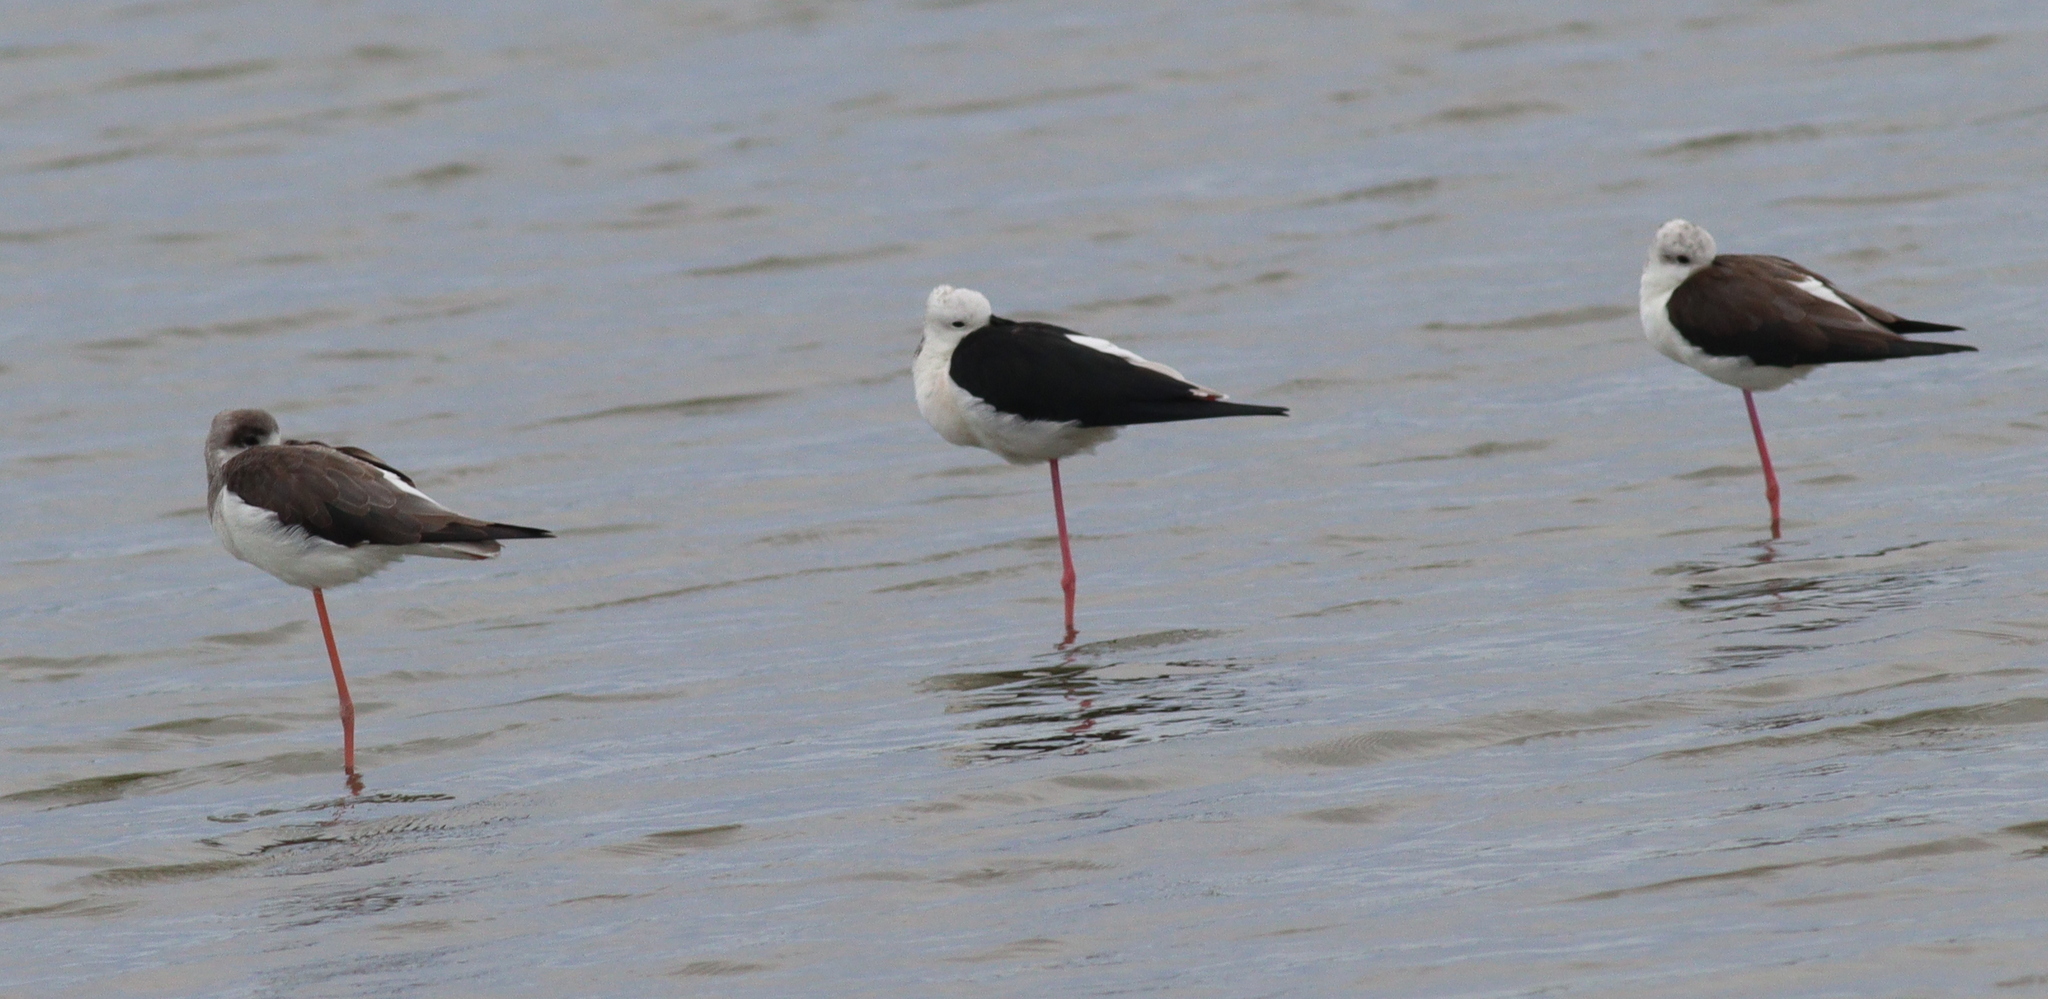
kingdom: Animalia
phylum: Chordata
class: Aves
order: Charadriiformes
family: Recurvirostridae
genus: Himantopus
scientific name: Himantopus himantopus
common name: Black-winged stilt
